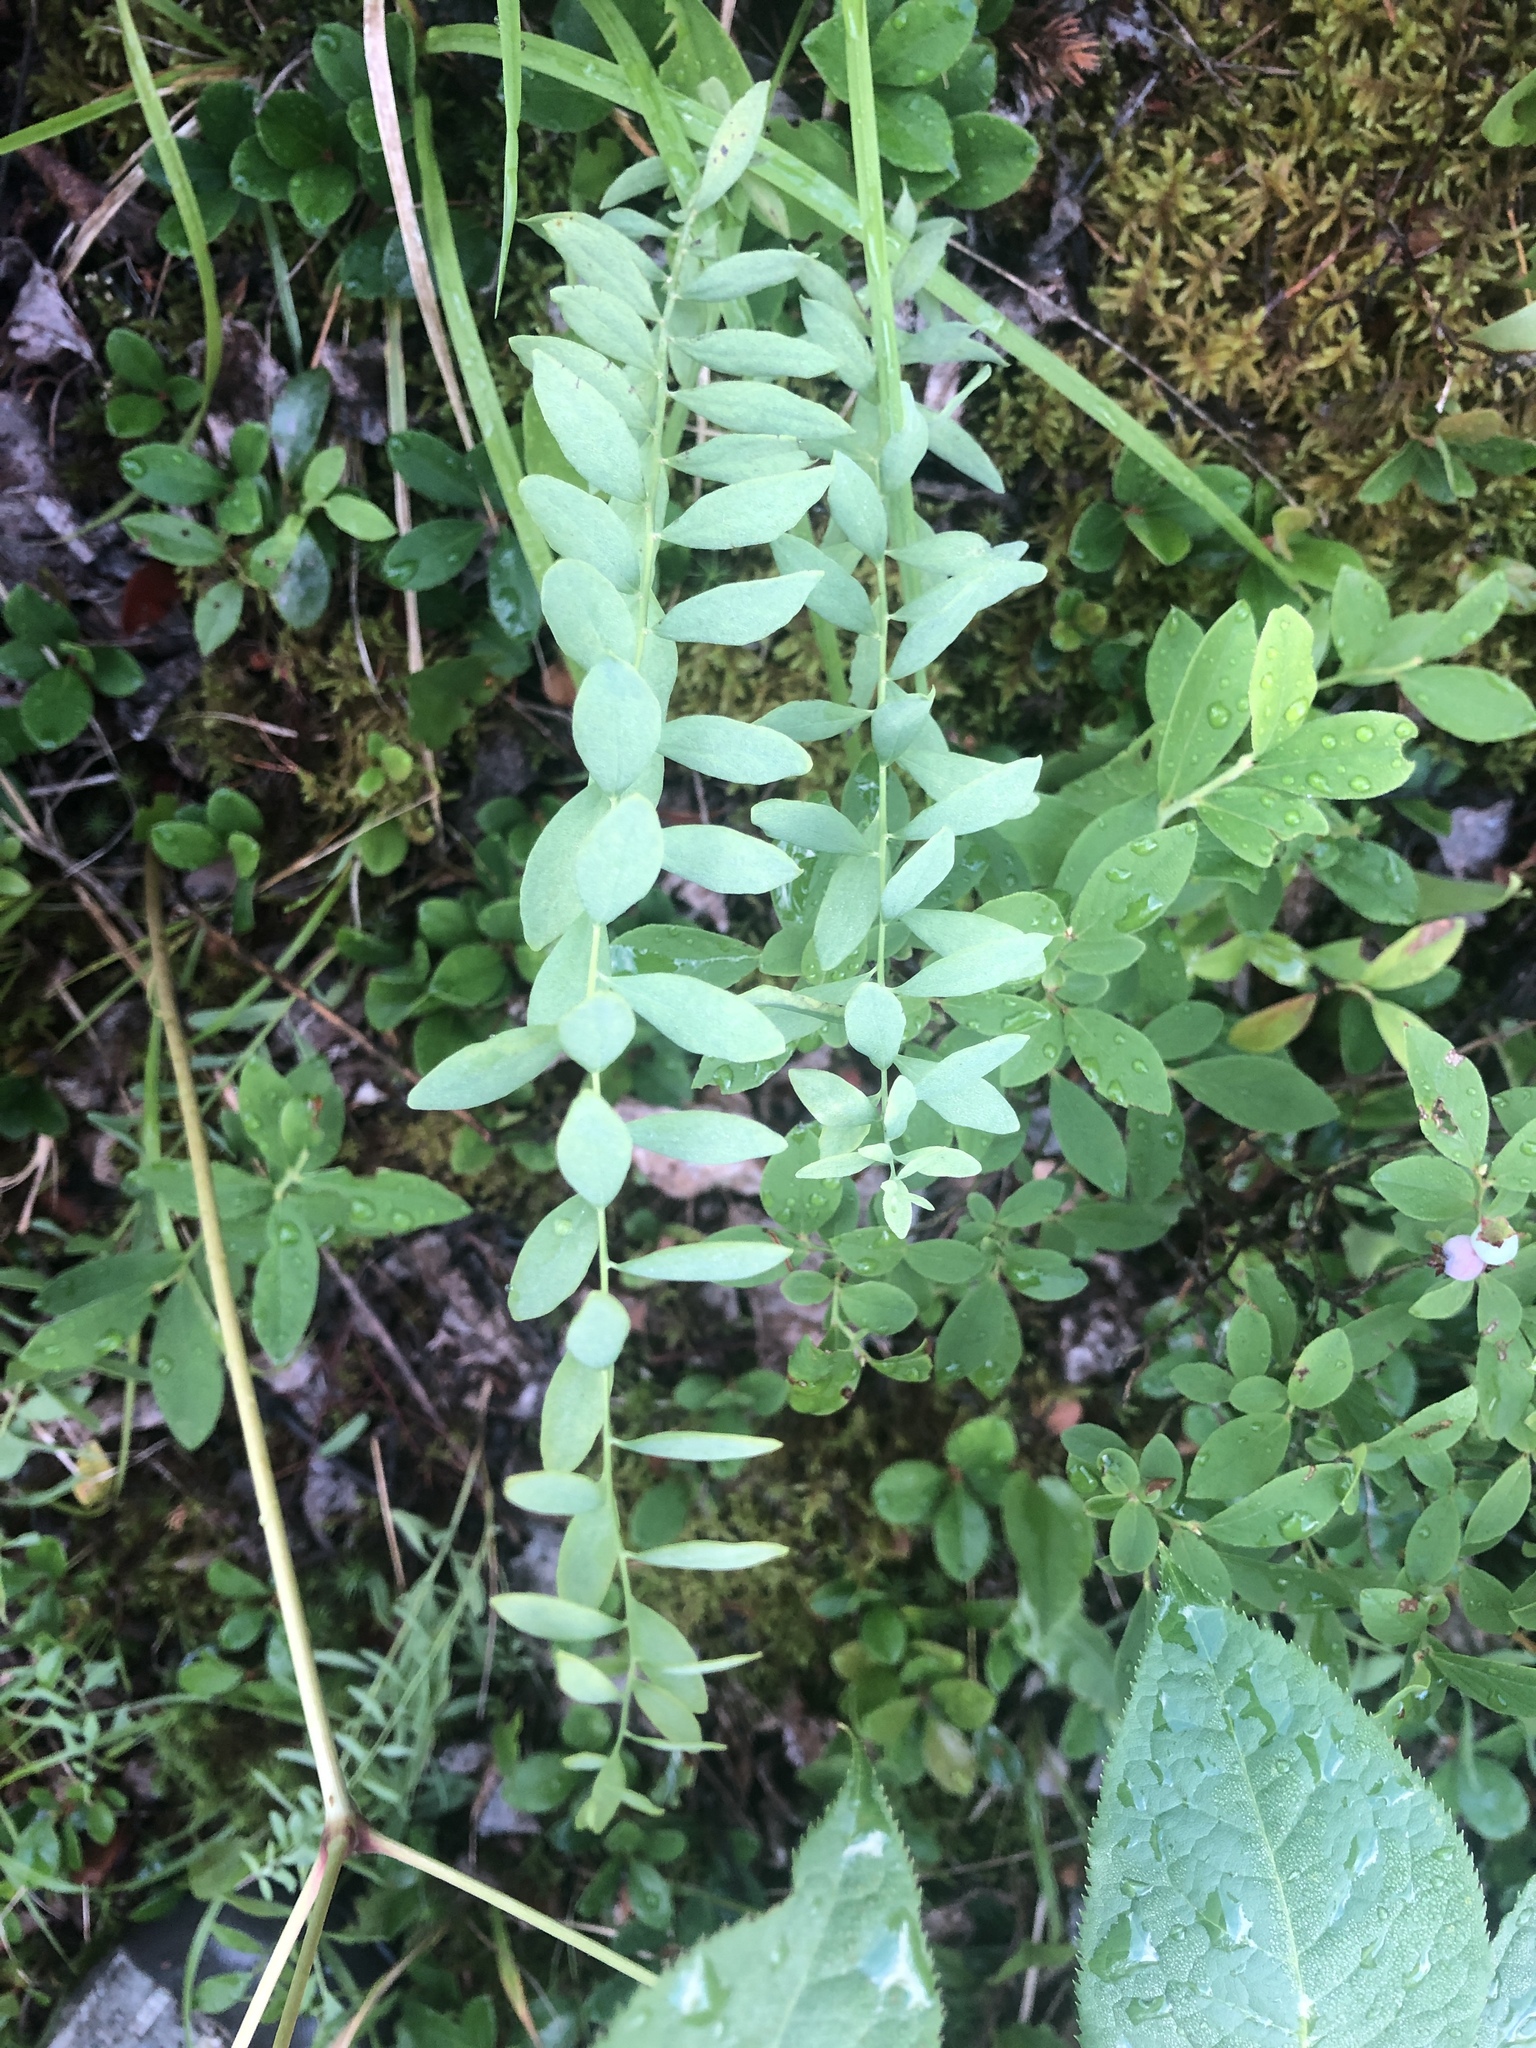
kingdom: Plantae
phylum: Tracheophyta
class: Magnoliopsida
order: Santalales
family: Comandraceae
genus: Comandra
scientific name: Comandra umbellata
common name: Bastard toadflax
